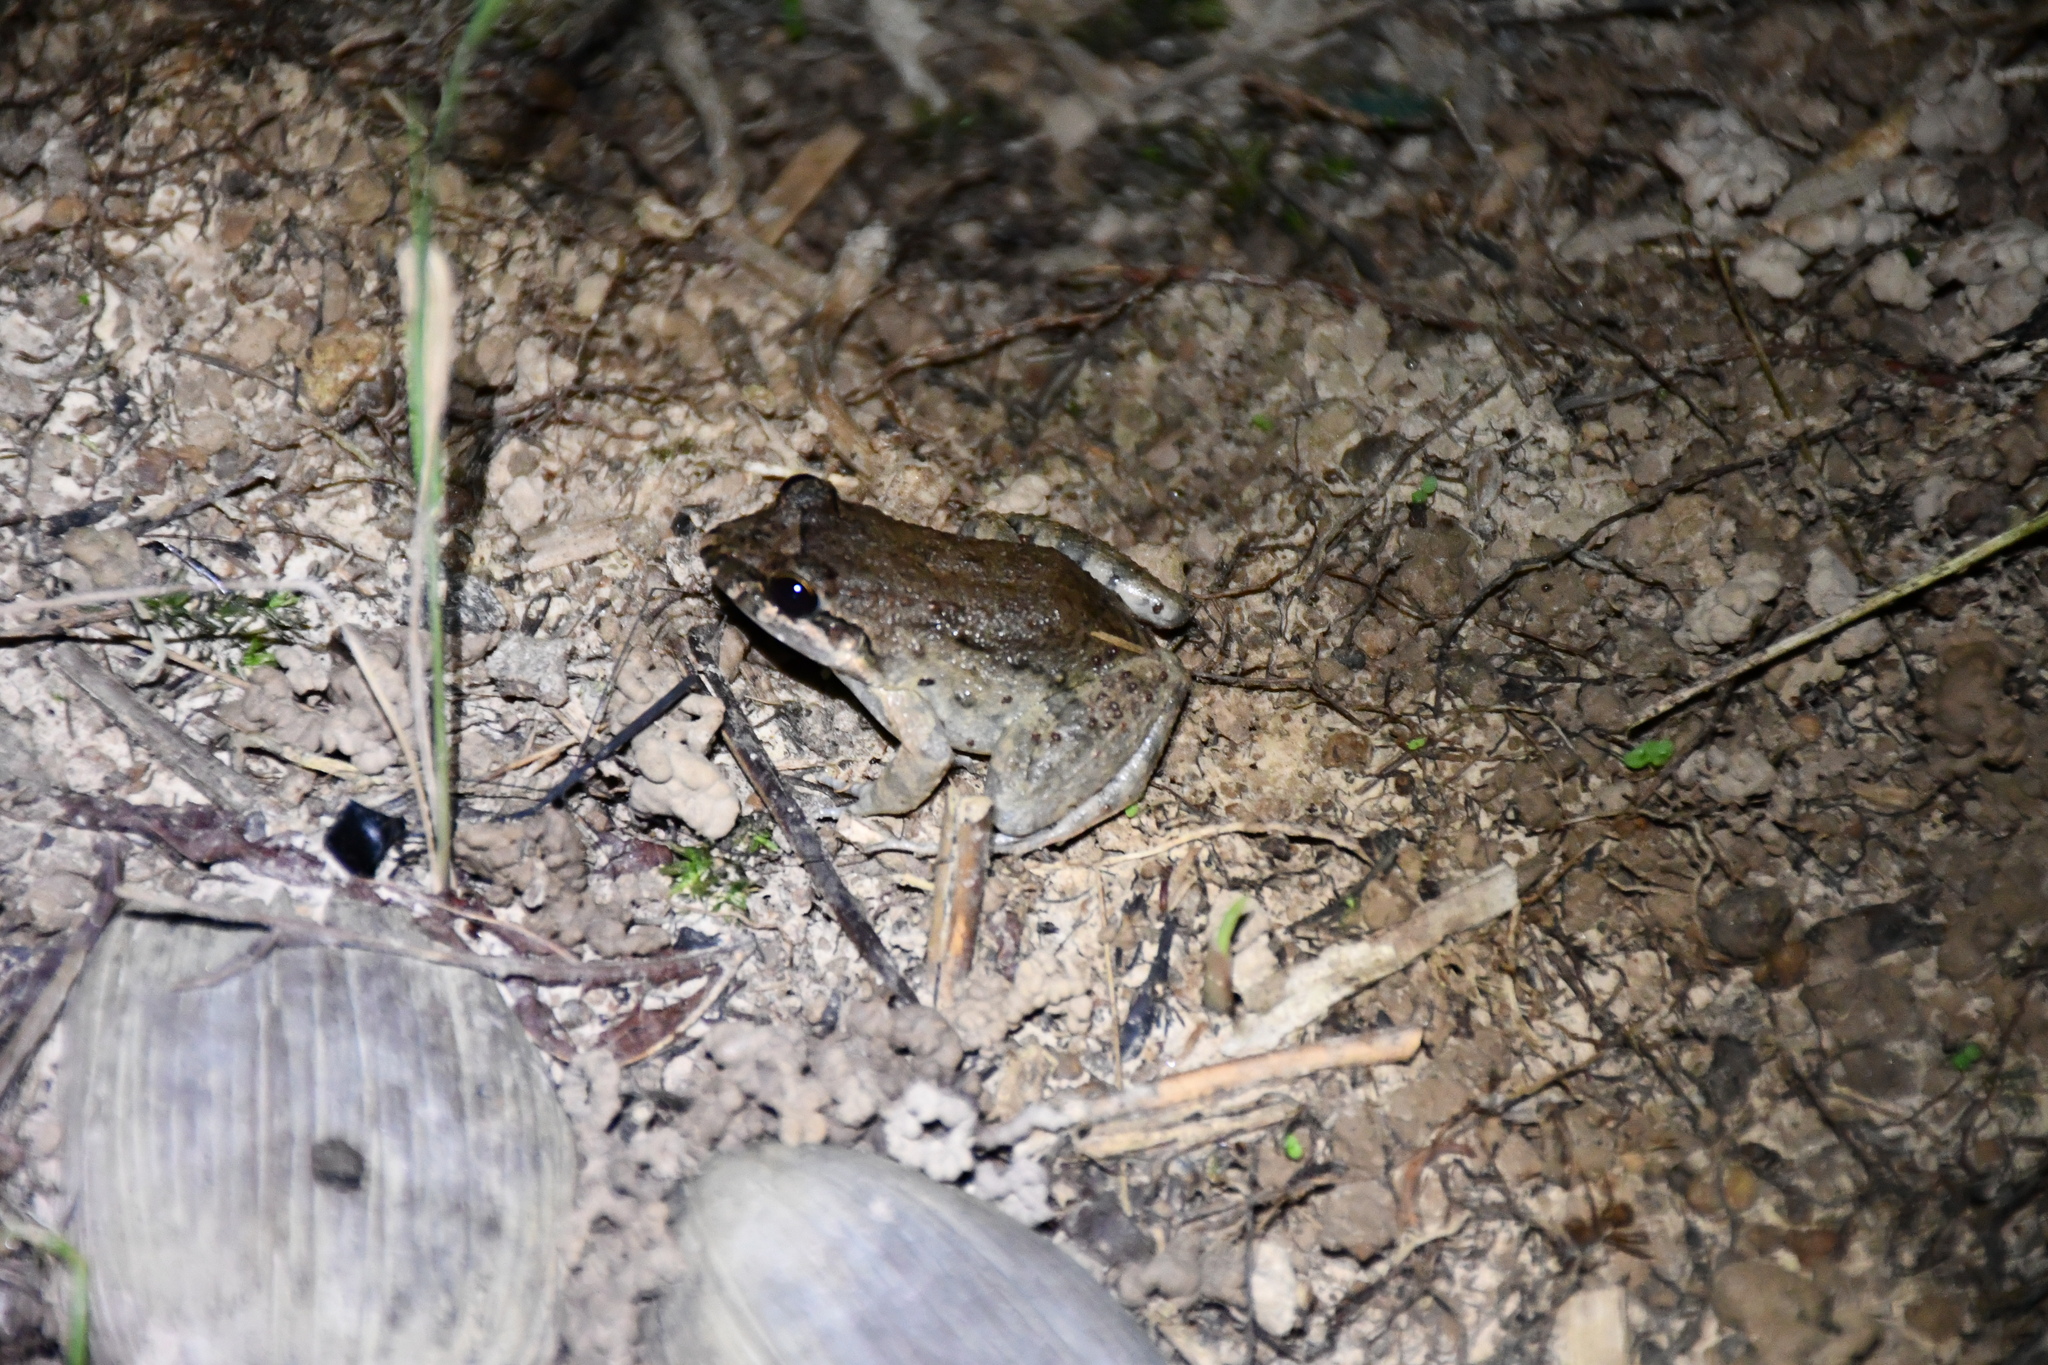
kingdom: Animalia
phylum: Chordata
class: Amphibia
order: Anura
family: Leptodactylidae
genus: Leptodactylus
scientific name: Leptodactylus petersii
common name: Peters' thin-toed frog
